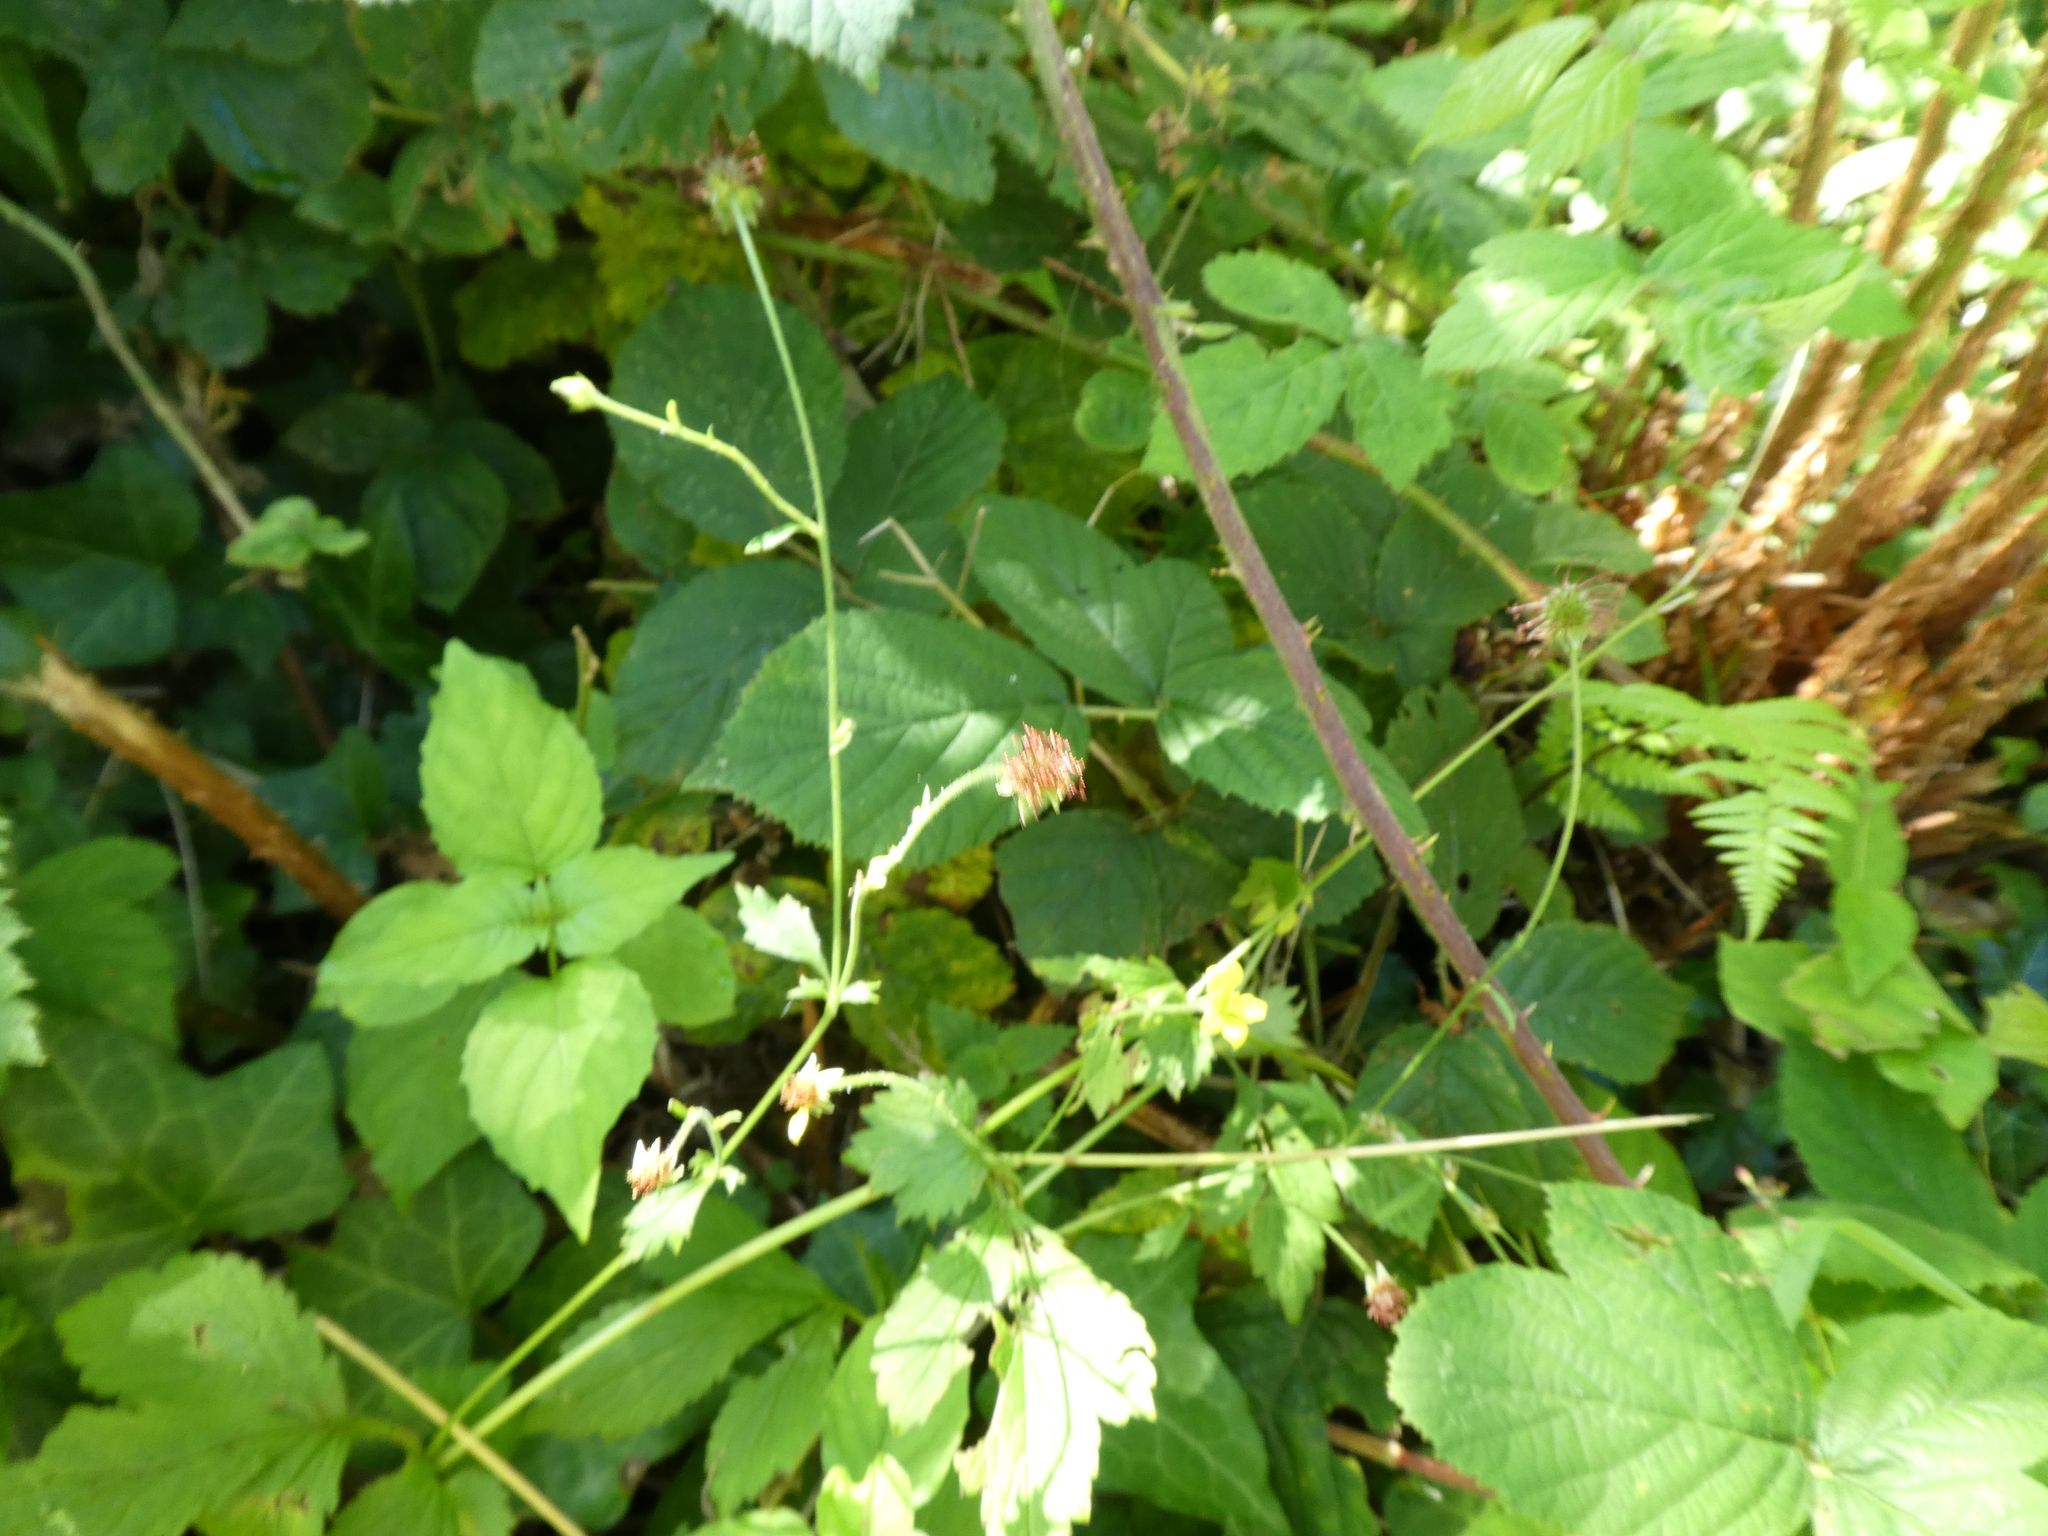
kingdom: Plantae
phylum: Tracheophyta
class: Magnoliopsida
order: Rosales
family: Rosaceae
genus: Geum
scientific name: Geum urbanum
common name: Wood avens
